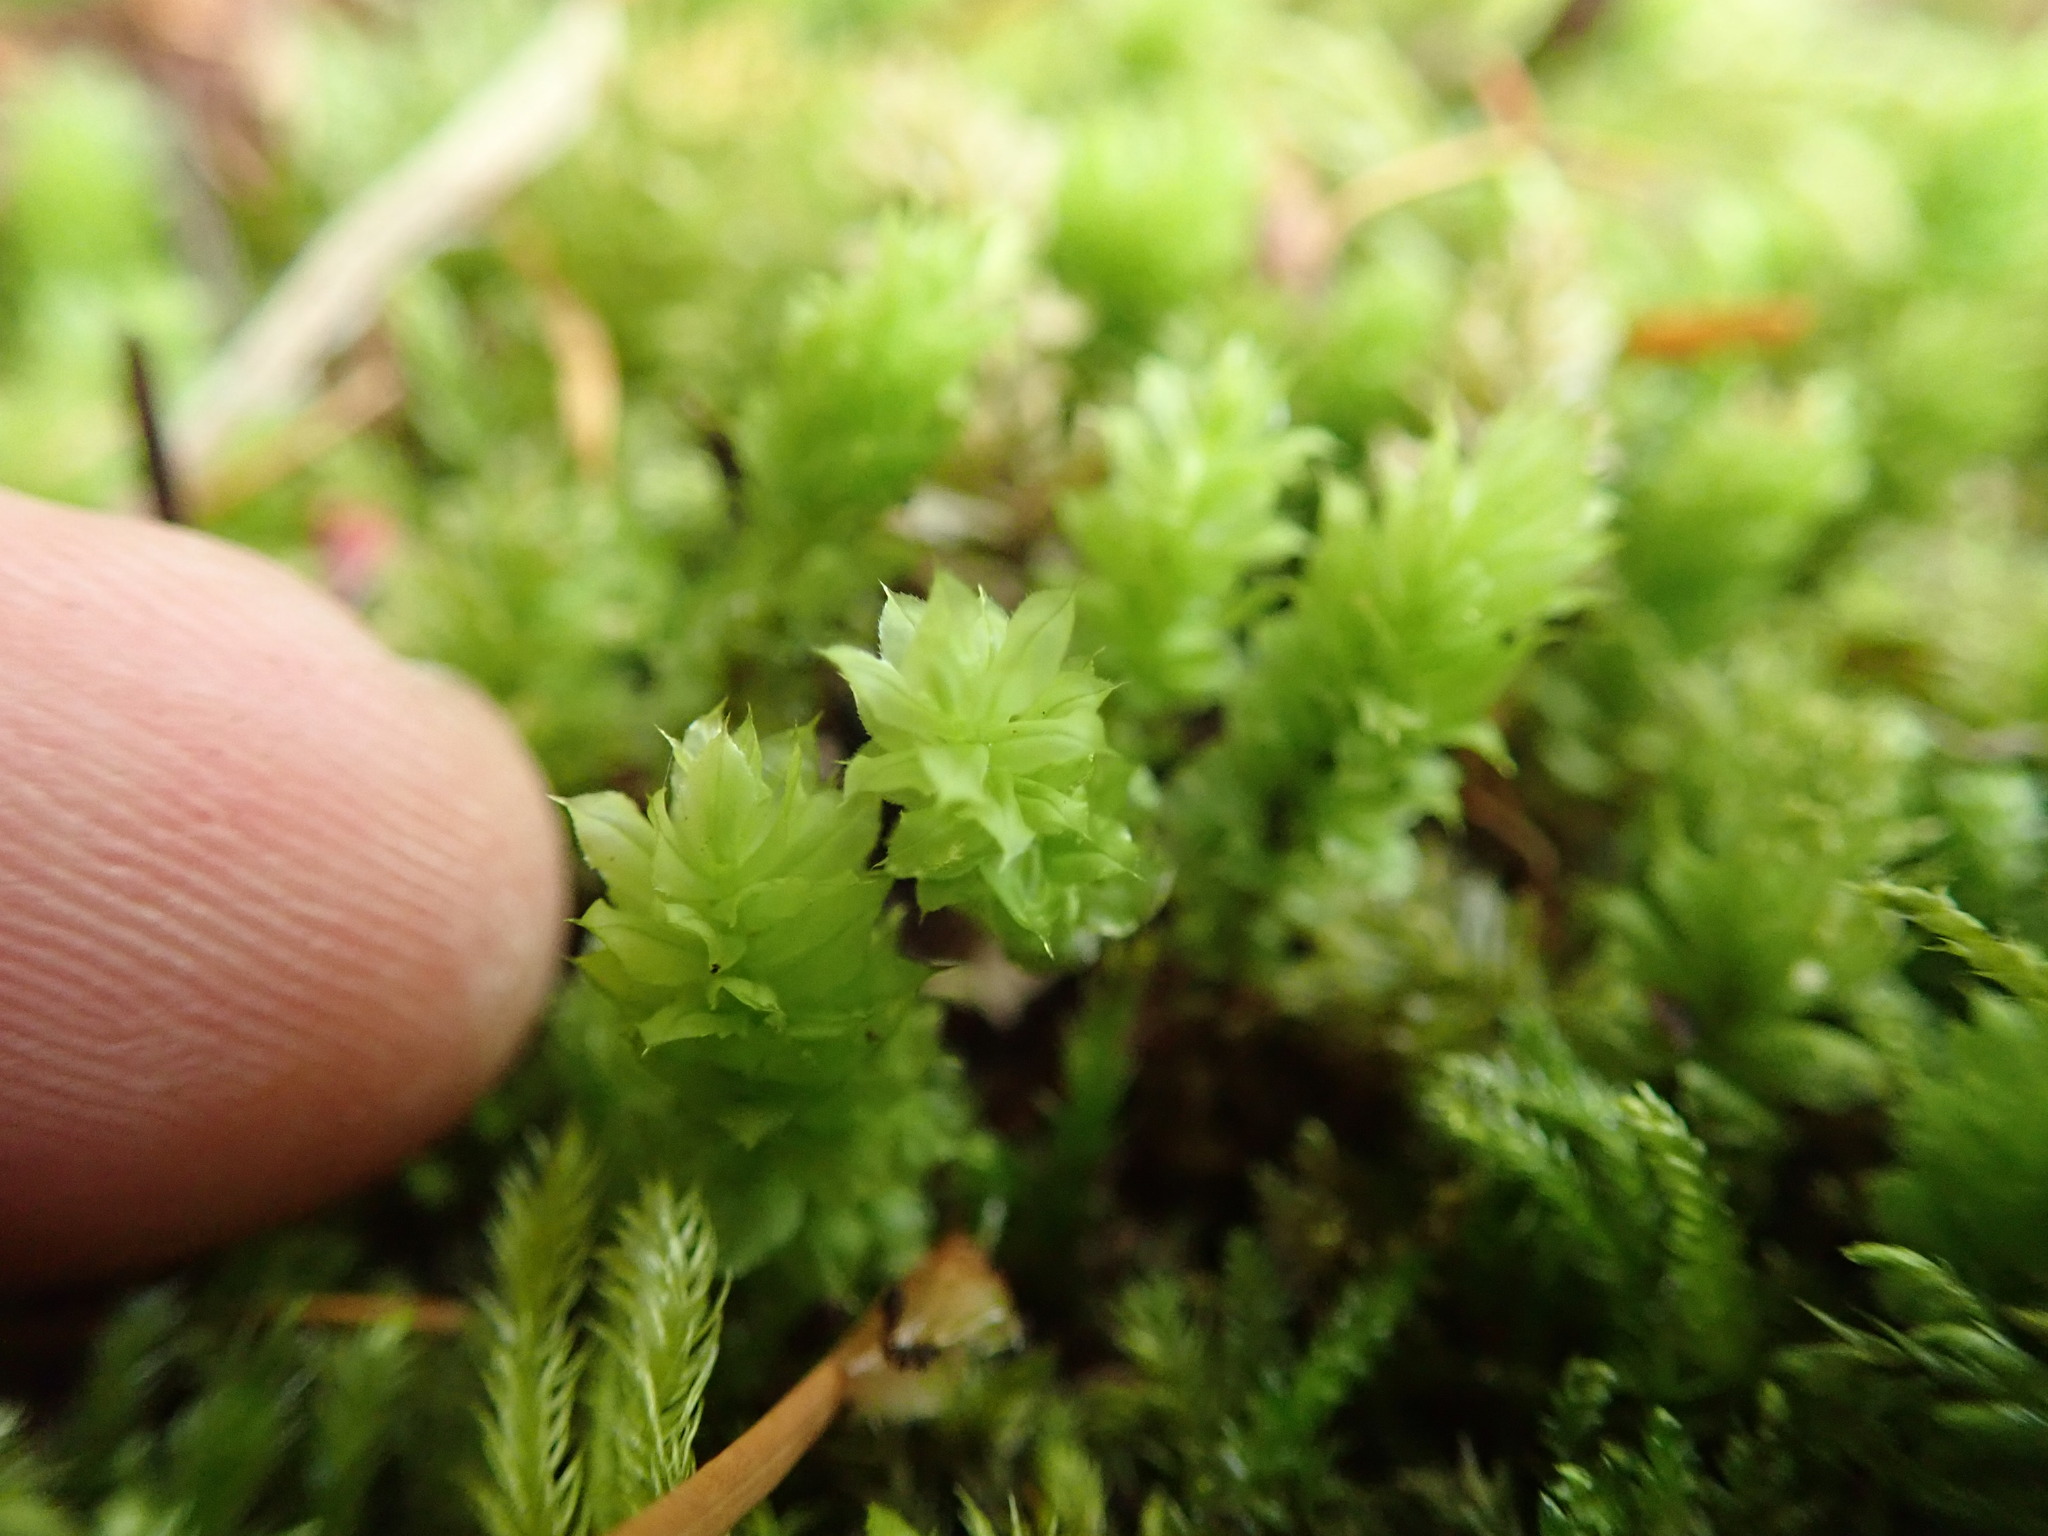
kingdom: Plantae
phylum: Bryophyta
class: Bryopsida
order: Bryales
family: Mniaceae
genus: Plagiomnium
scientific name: Plagiomnium venustum
